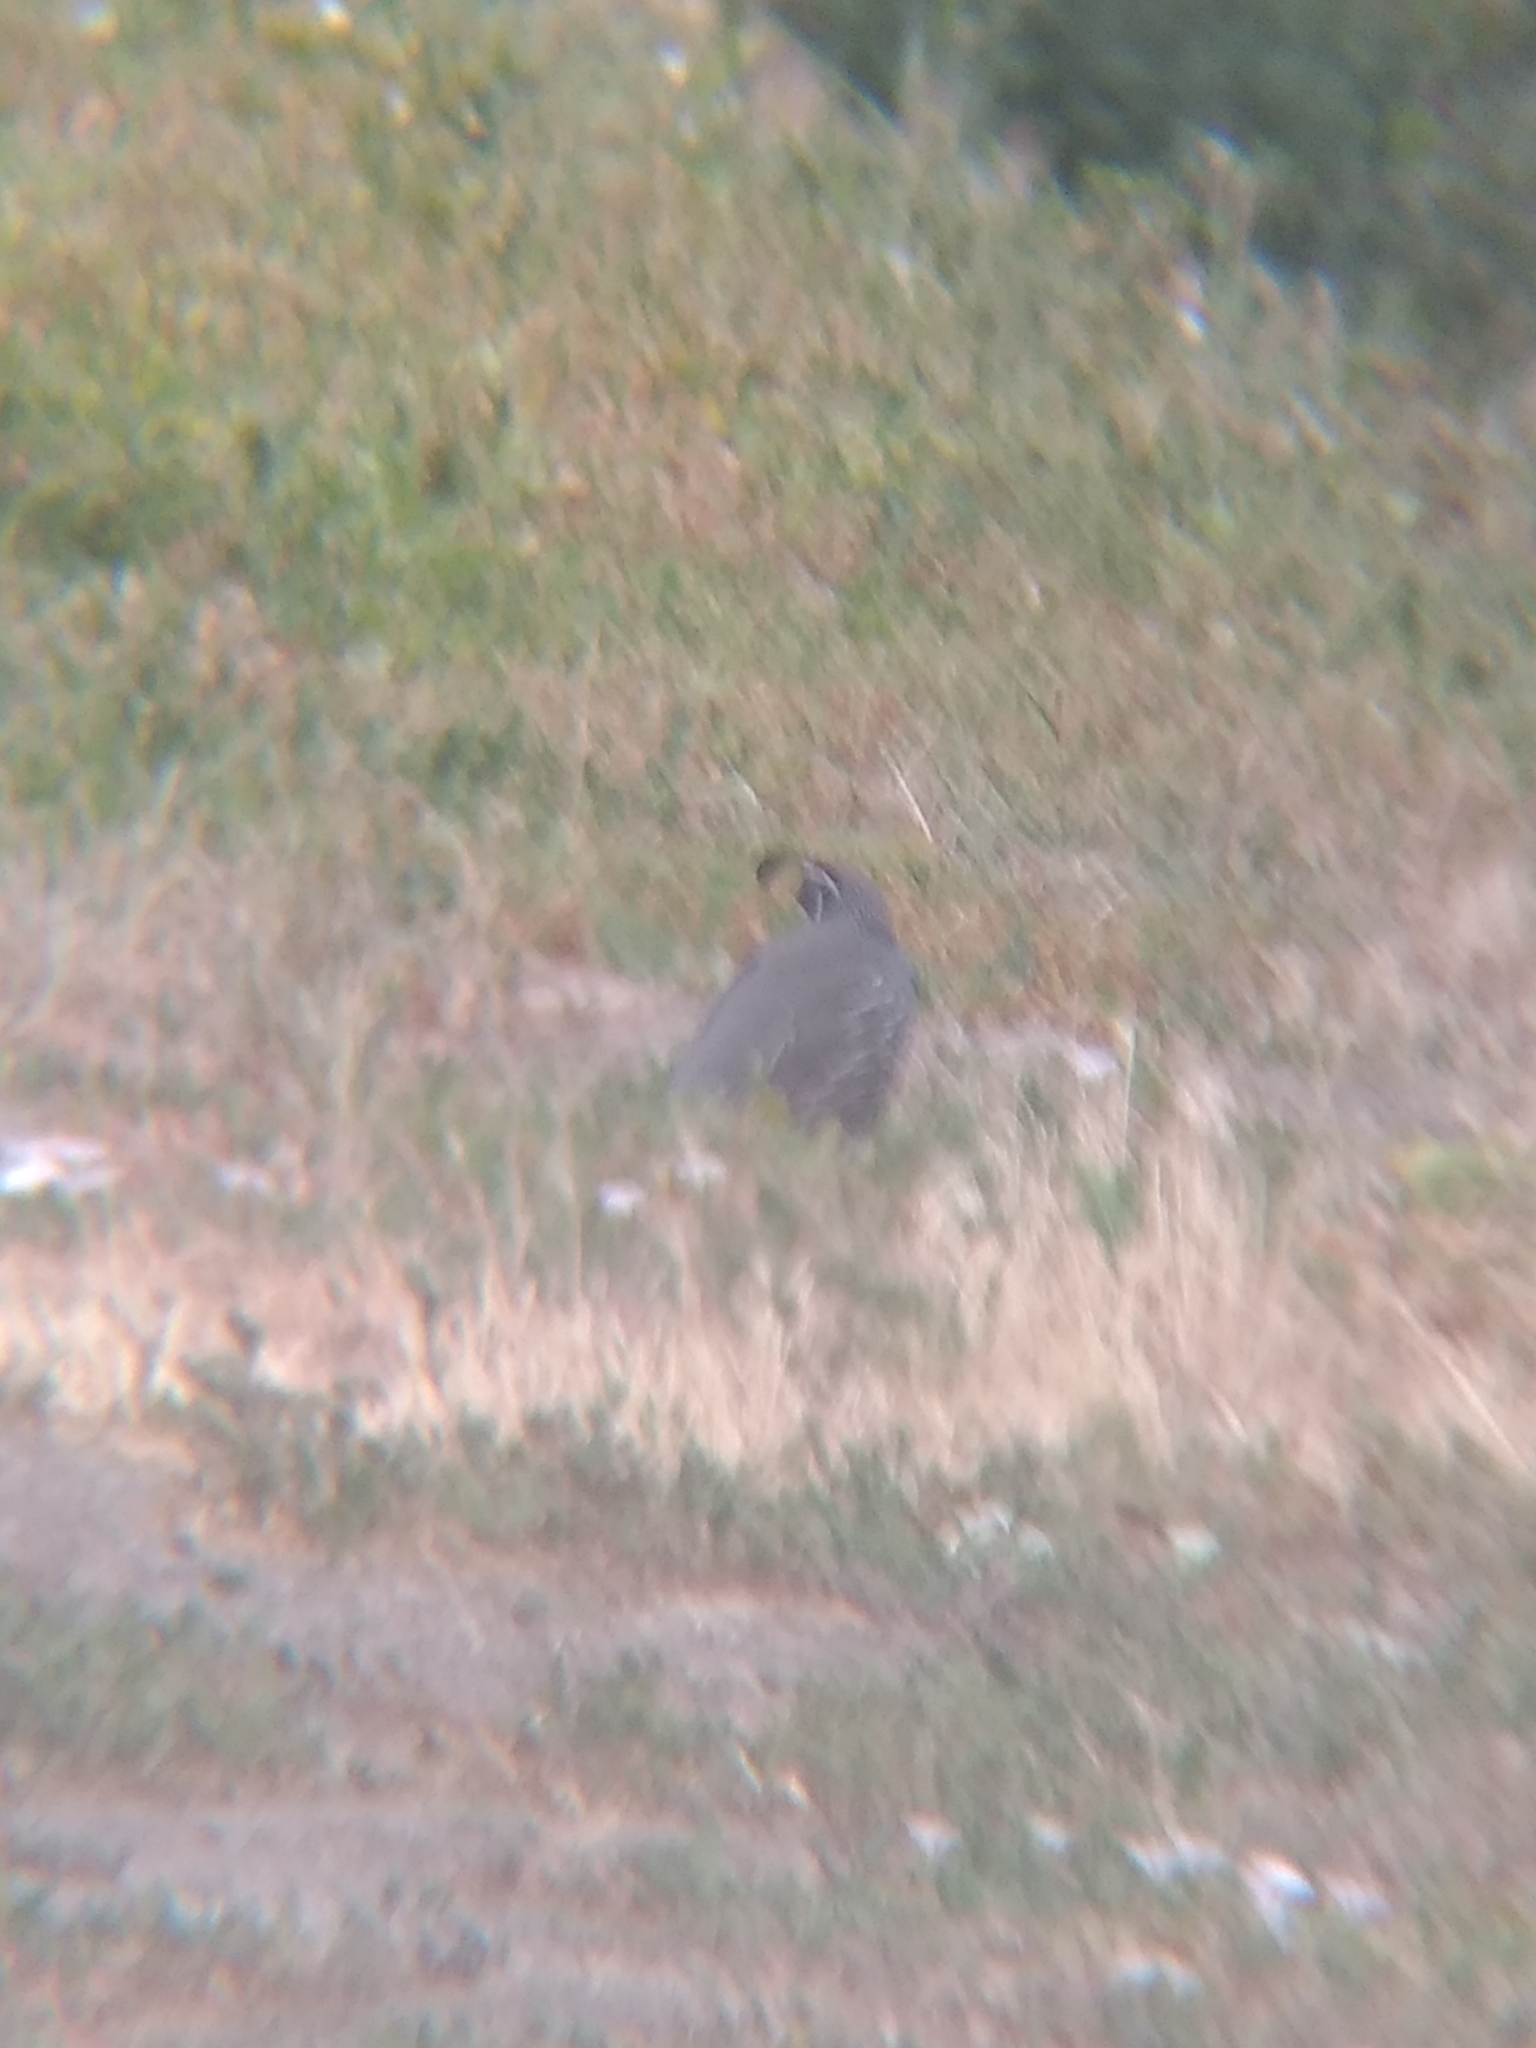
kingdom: Animalia
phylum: Chordata
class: Aves
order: Galliformes
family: Odontophoridae
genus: Callipepla
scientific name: Callipepla californica
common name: California quail
